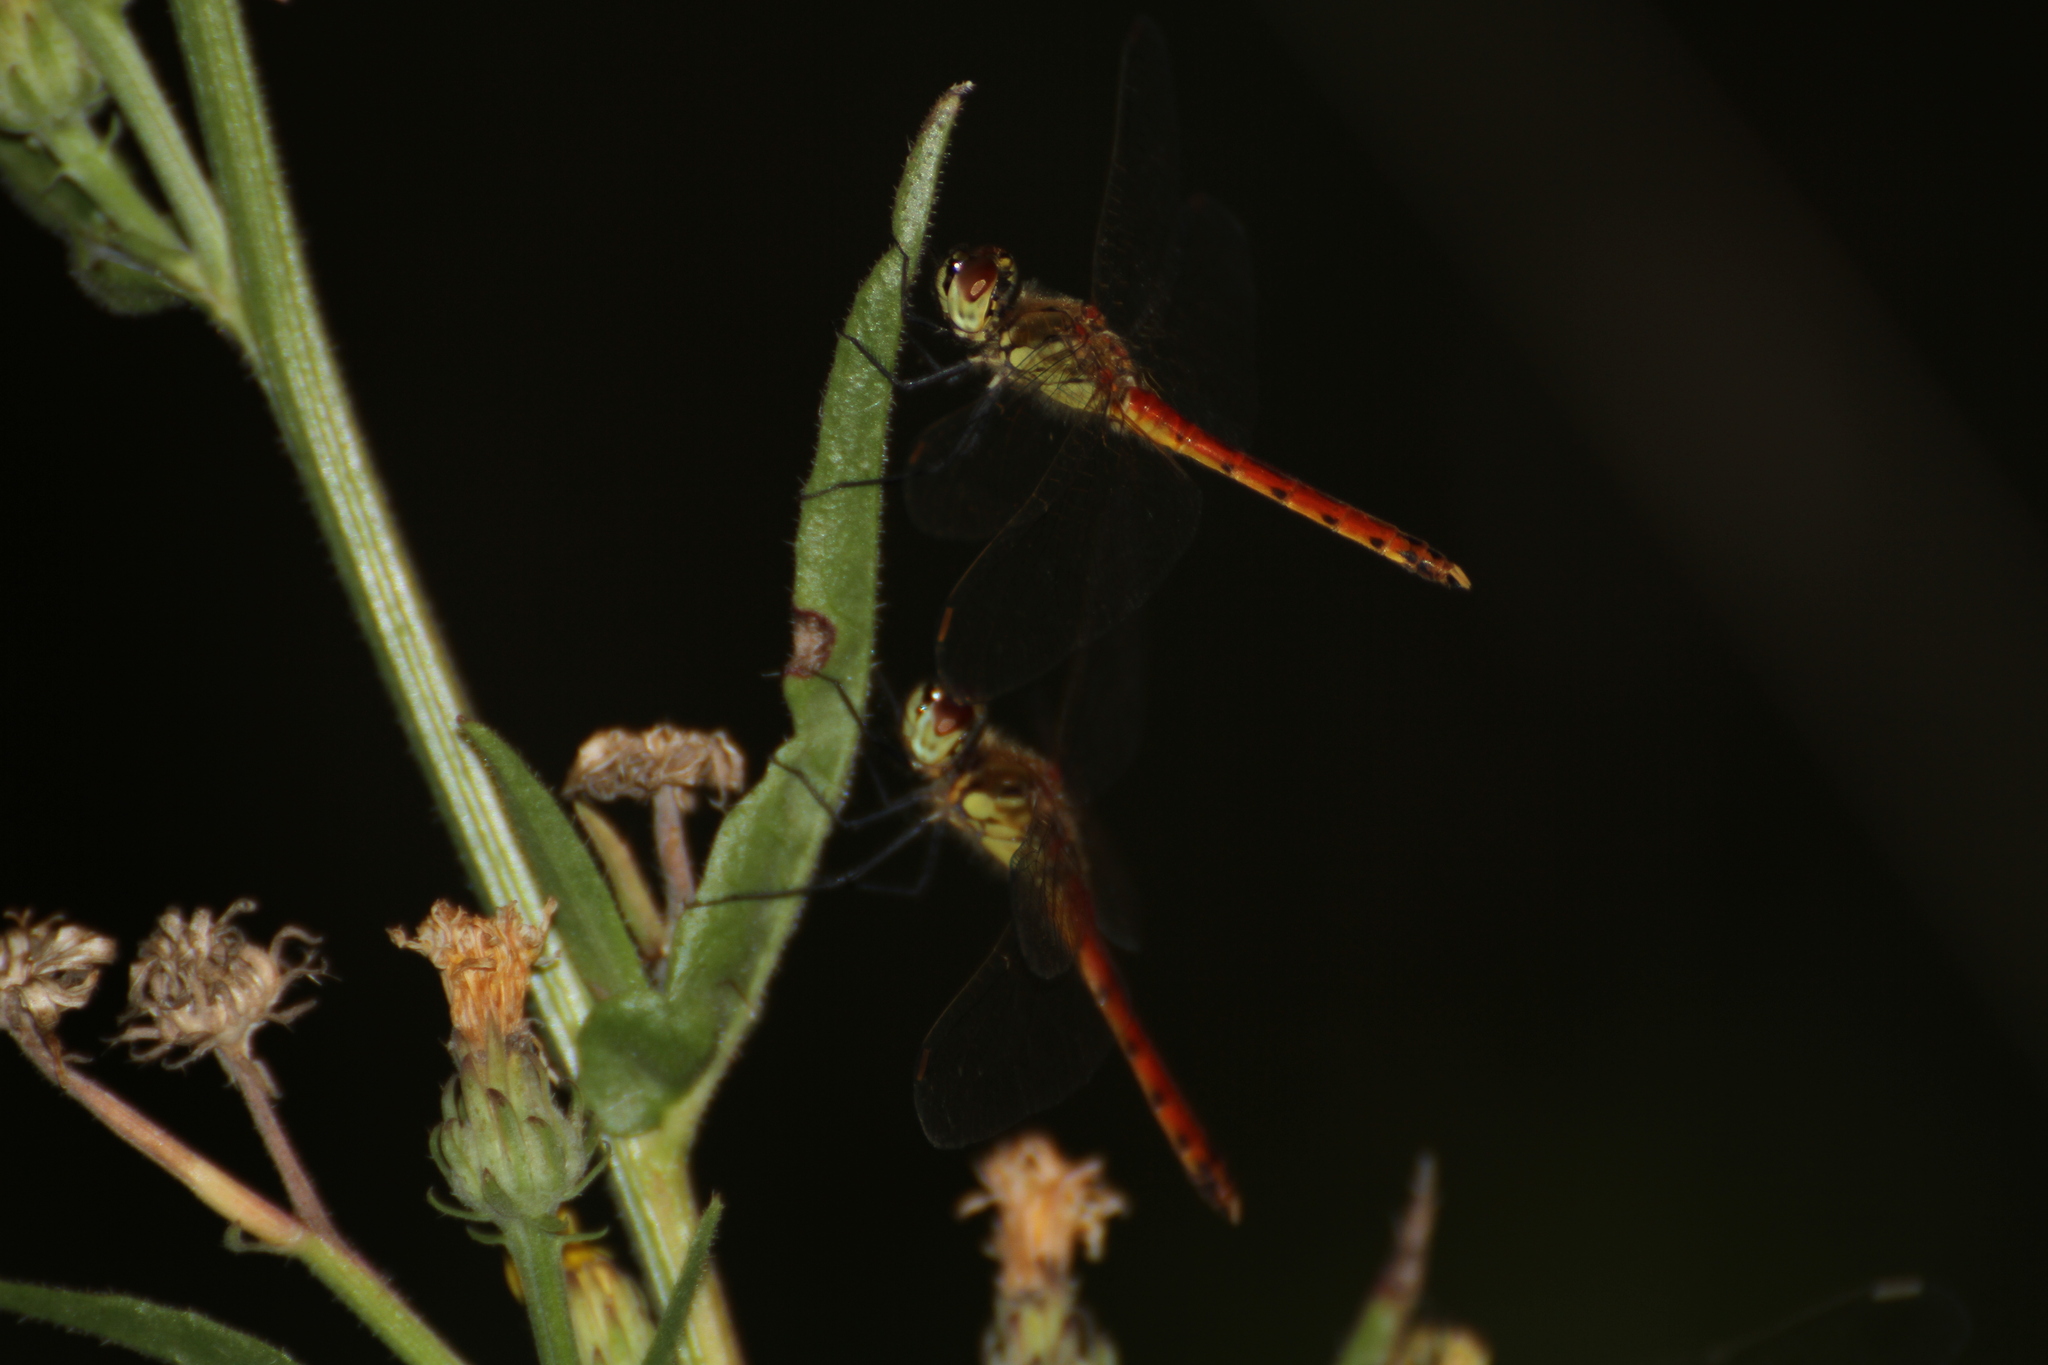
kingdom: Animalia
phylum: Arthropoda
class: Insecta
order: Odonata
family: Libellulidae
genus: Sympetrum
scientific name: Sympetrum depressiusculum
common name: Spotted darter
